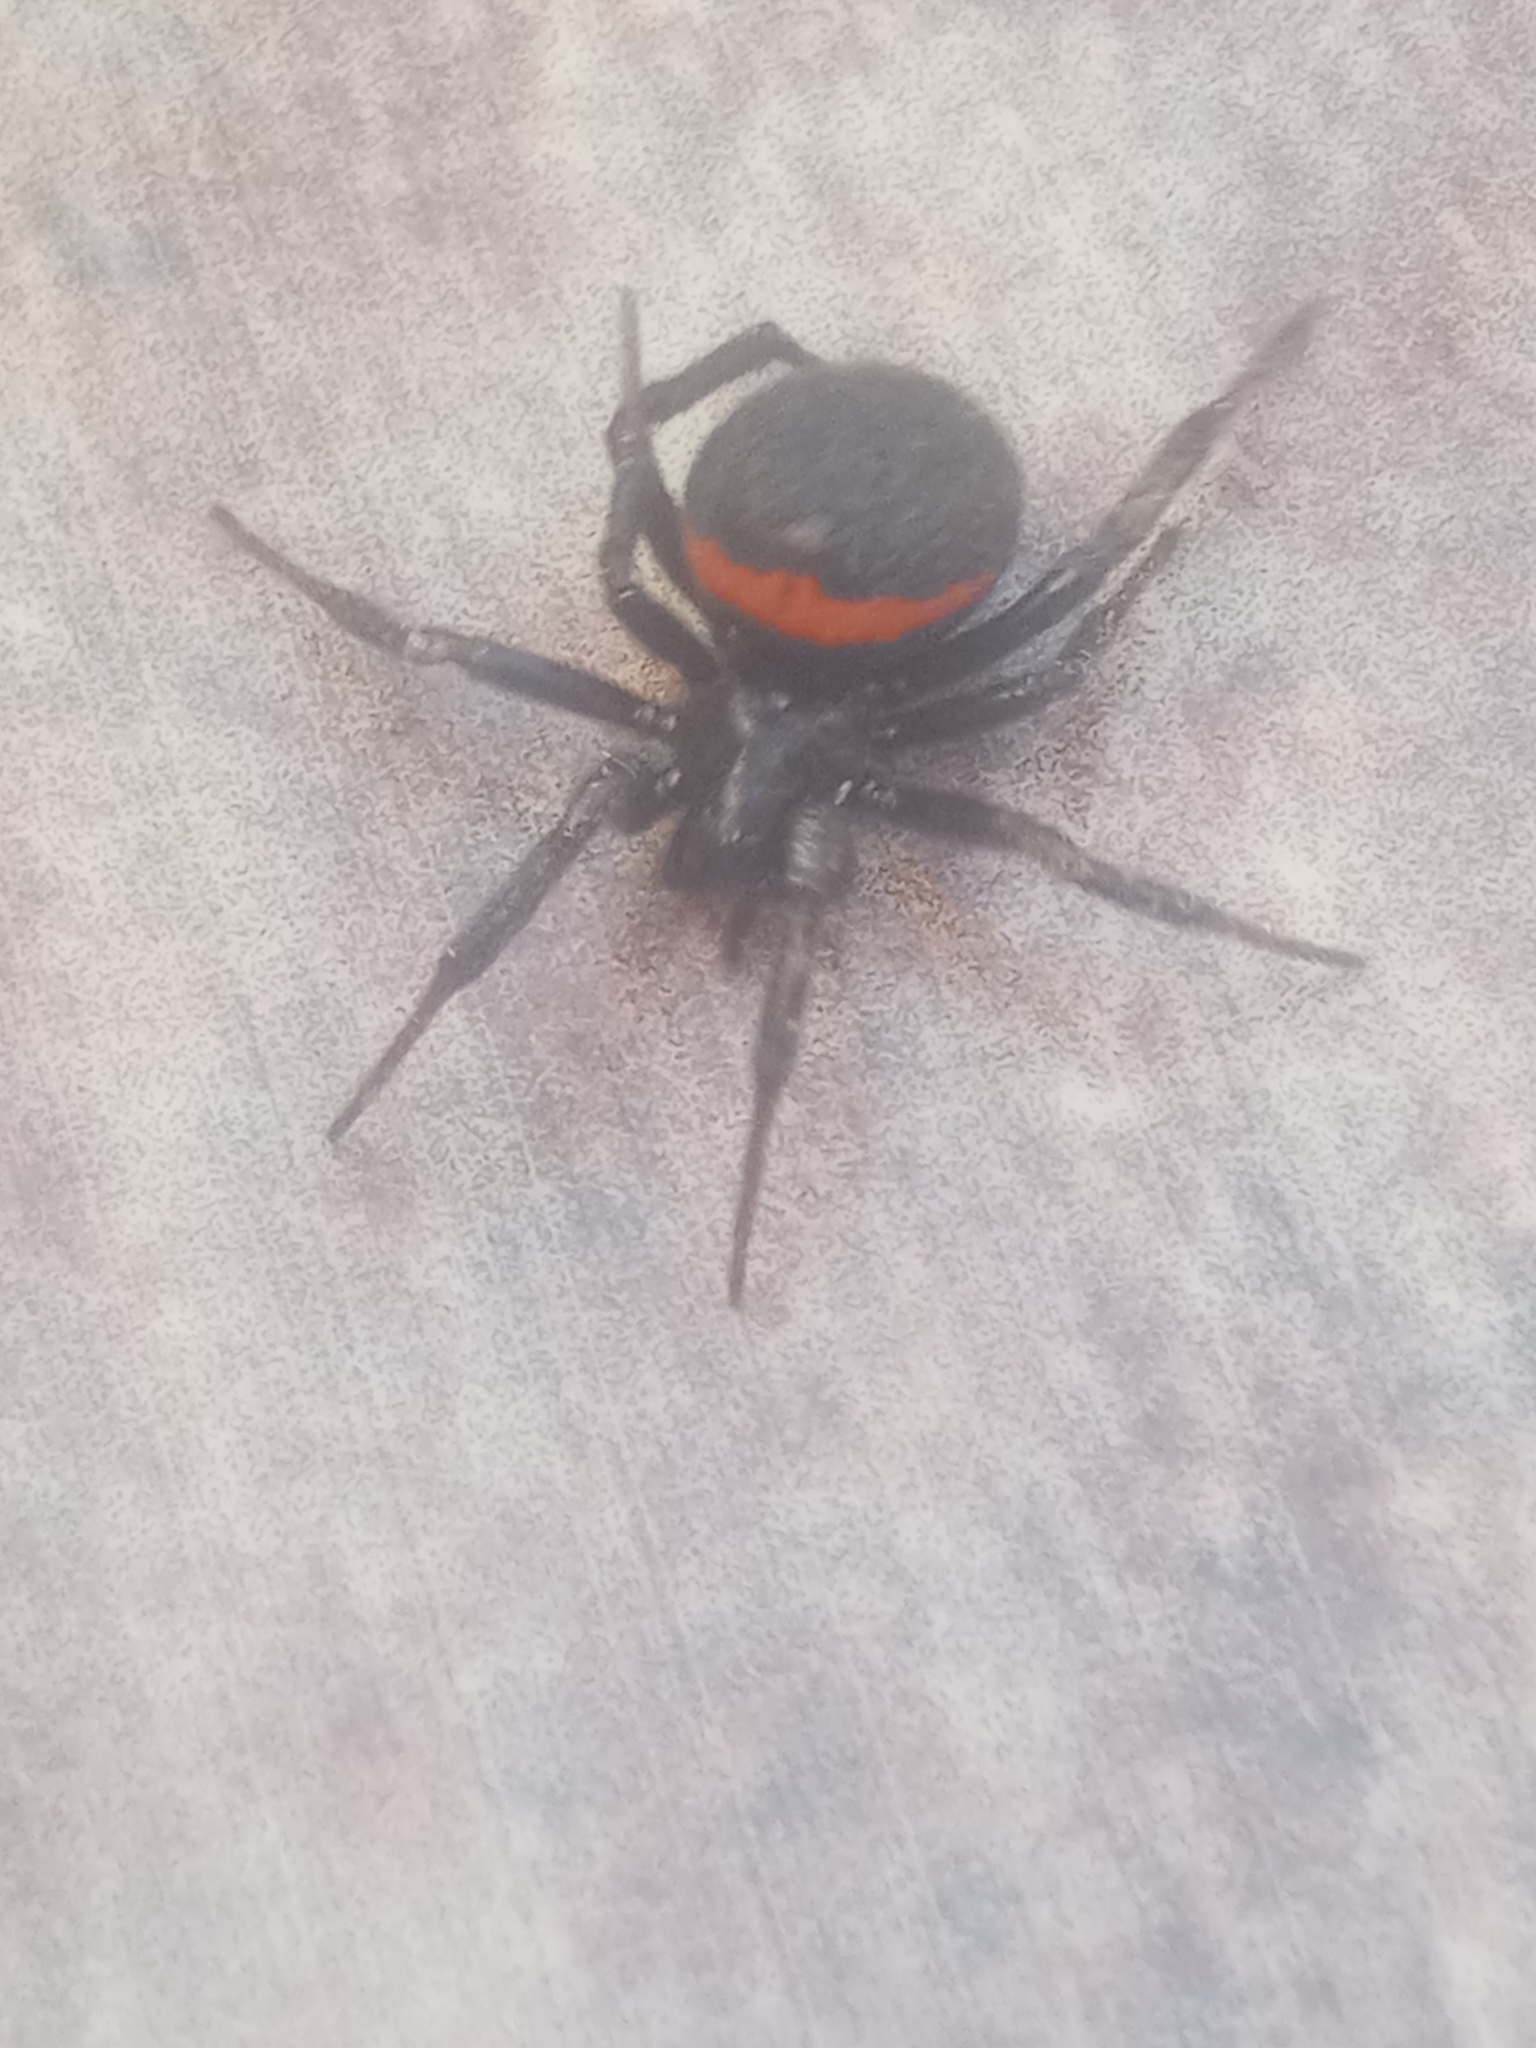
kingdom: Animalia
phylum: Arthropoda
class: Arachnida
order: Araneae
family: Theridiidae
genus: Steatoda
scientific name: Steatoda paykulliana
